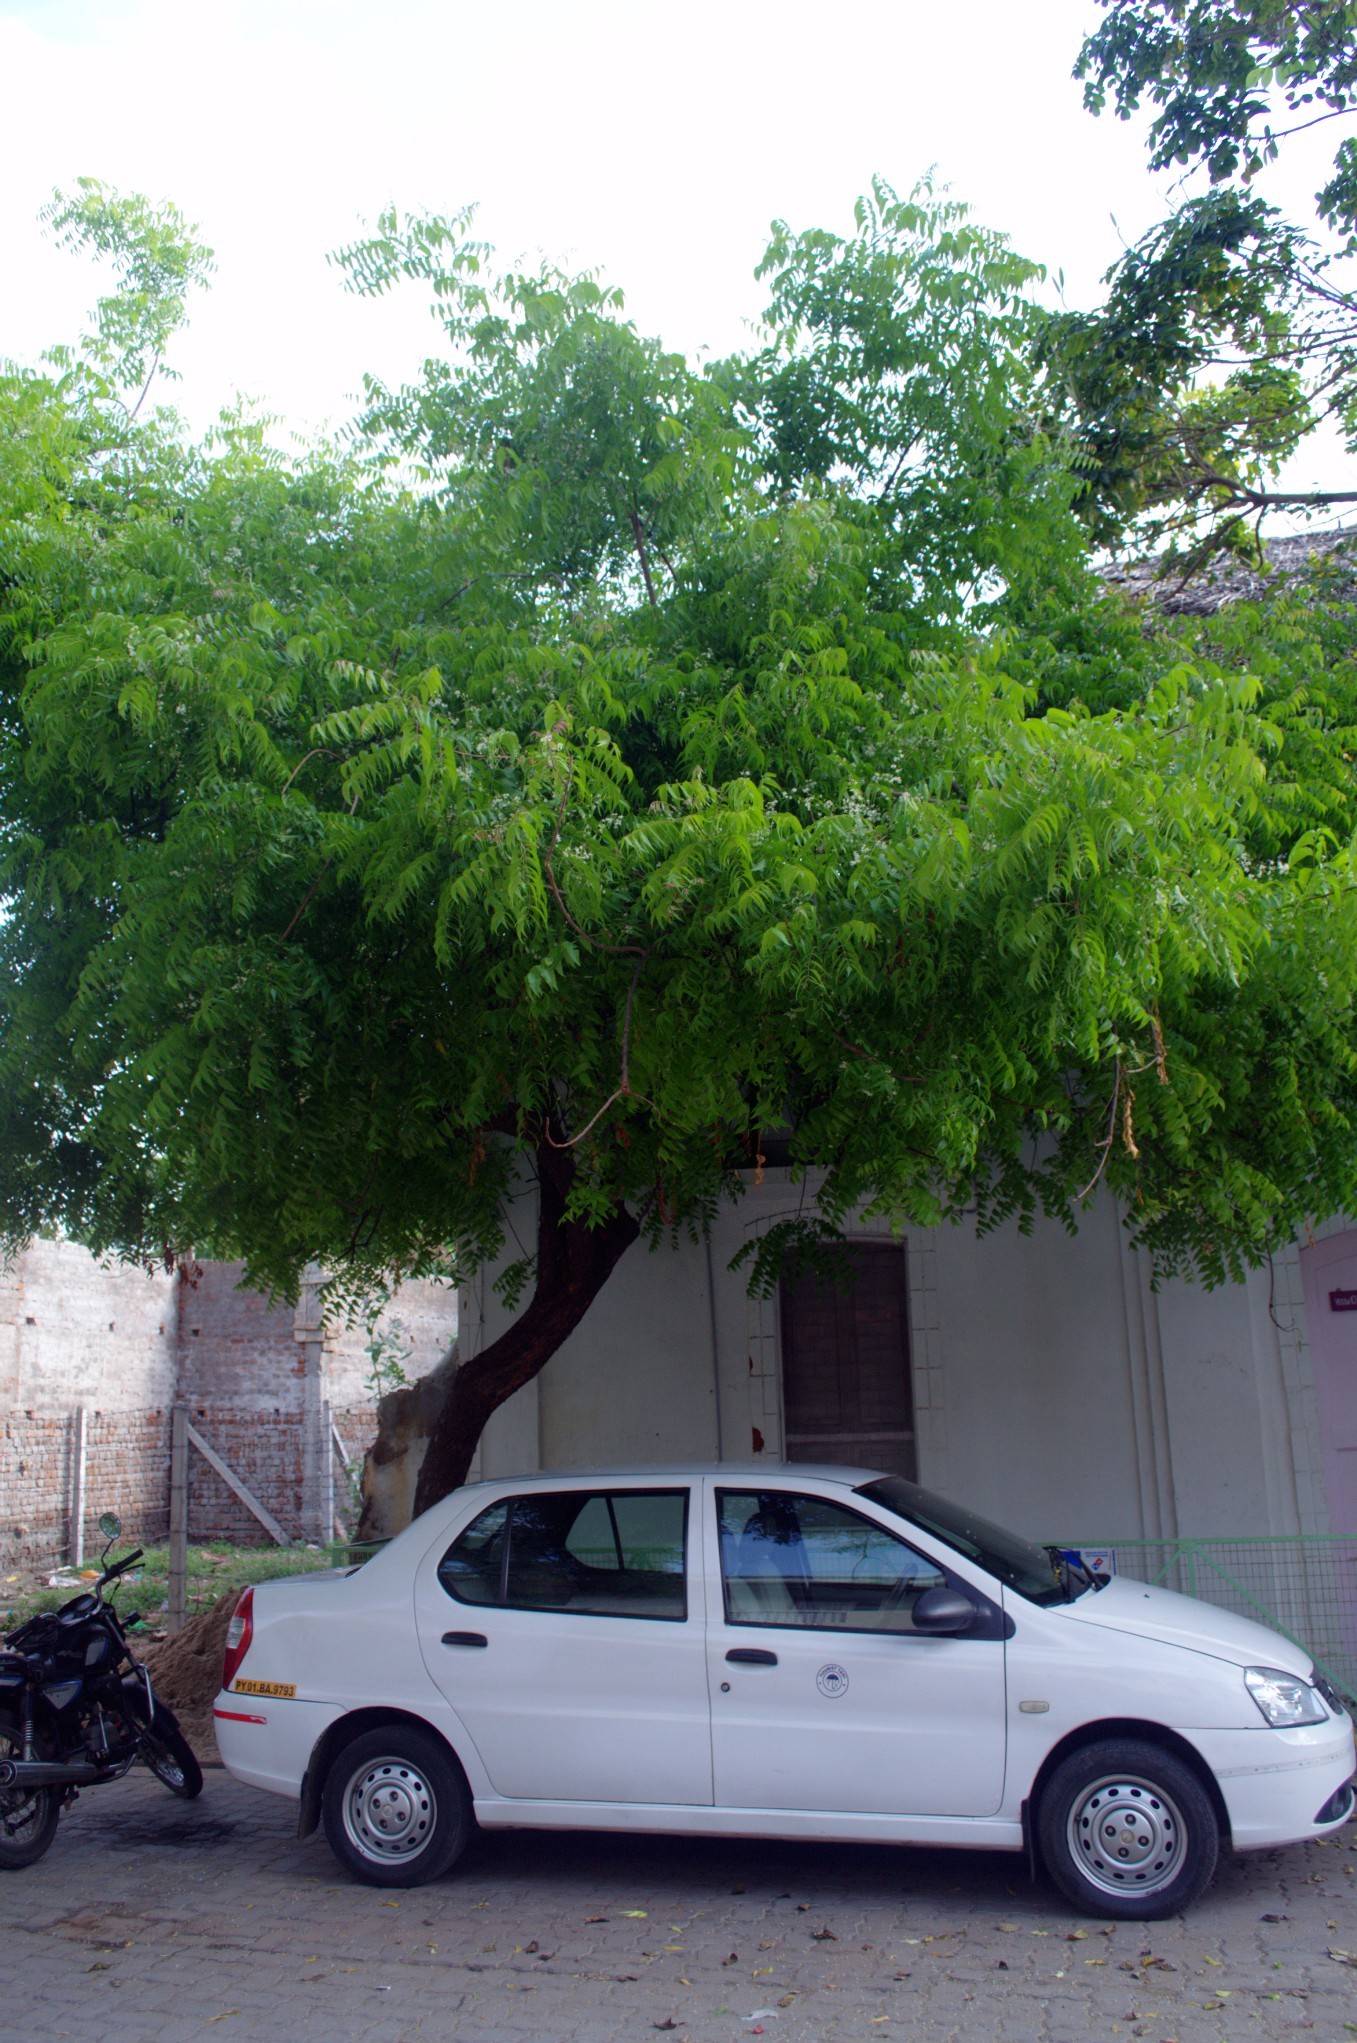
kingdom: Plantae
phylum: Tracheophyta
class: Magnoliopsida
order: Sapindales
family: Meliaceae
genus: Azadirachta
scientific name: Azadirachta indica
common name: Neem
